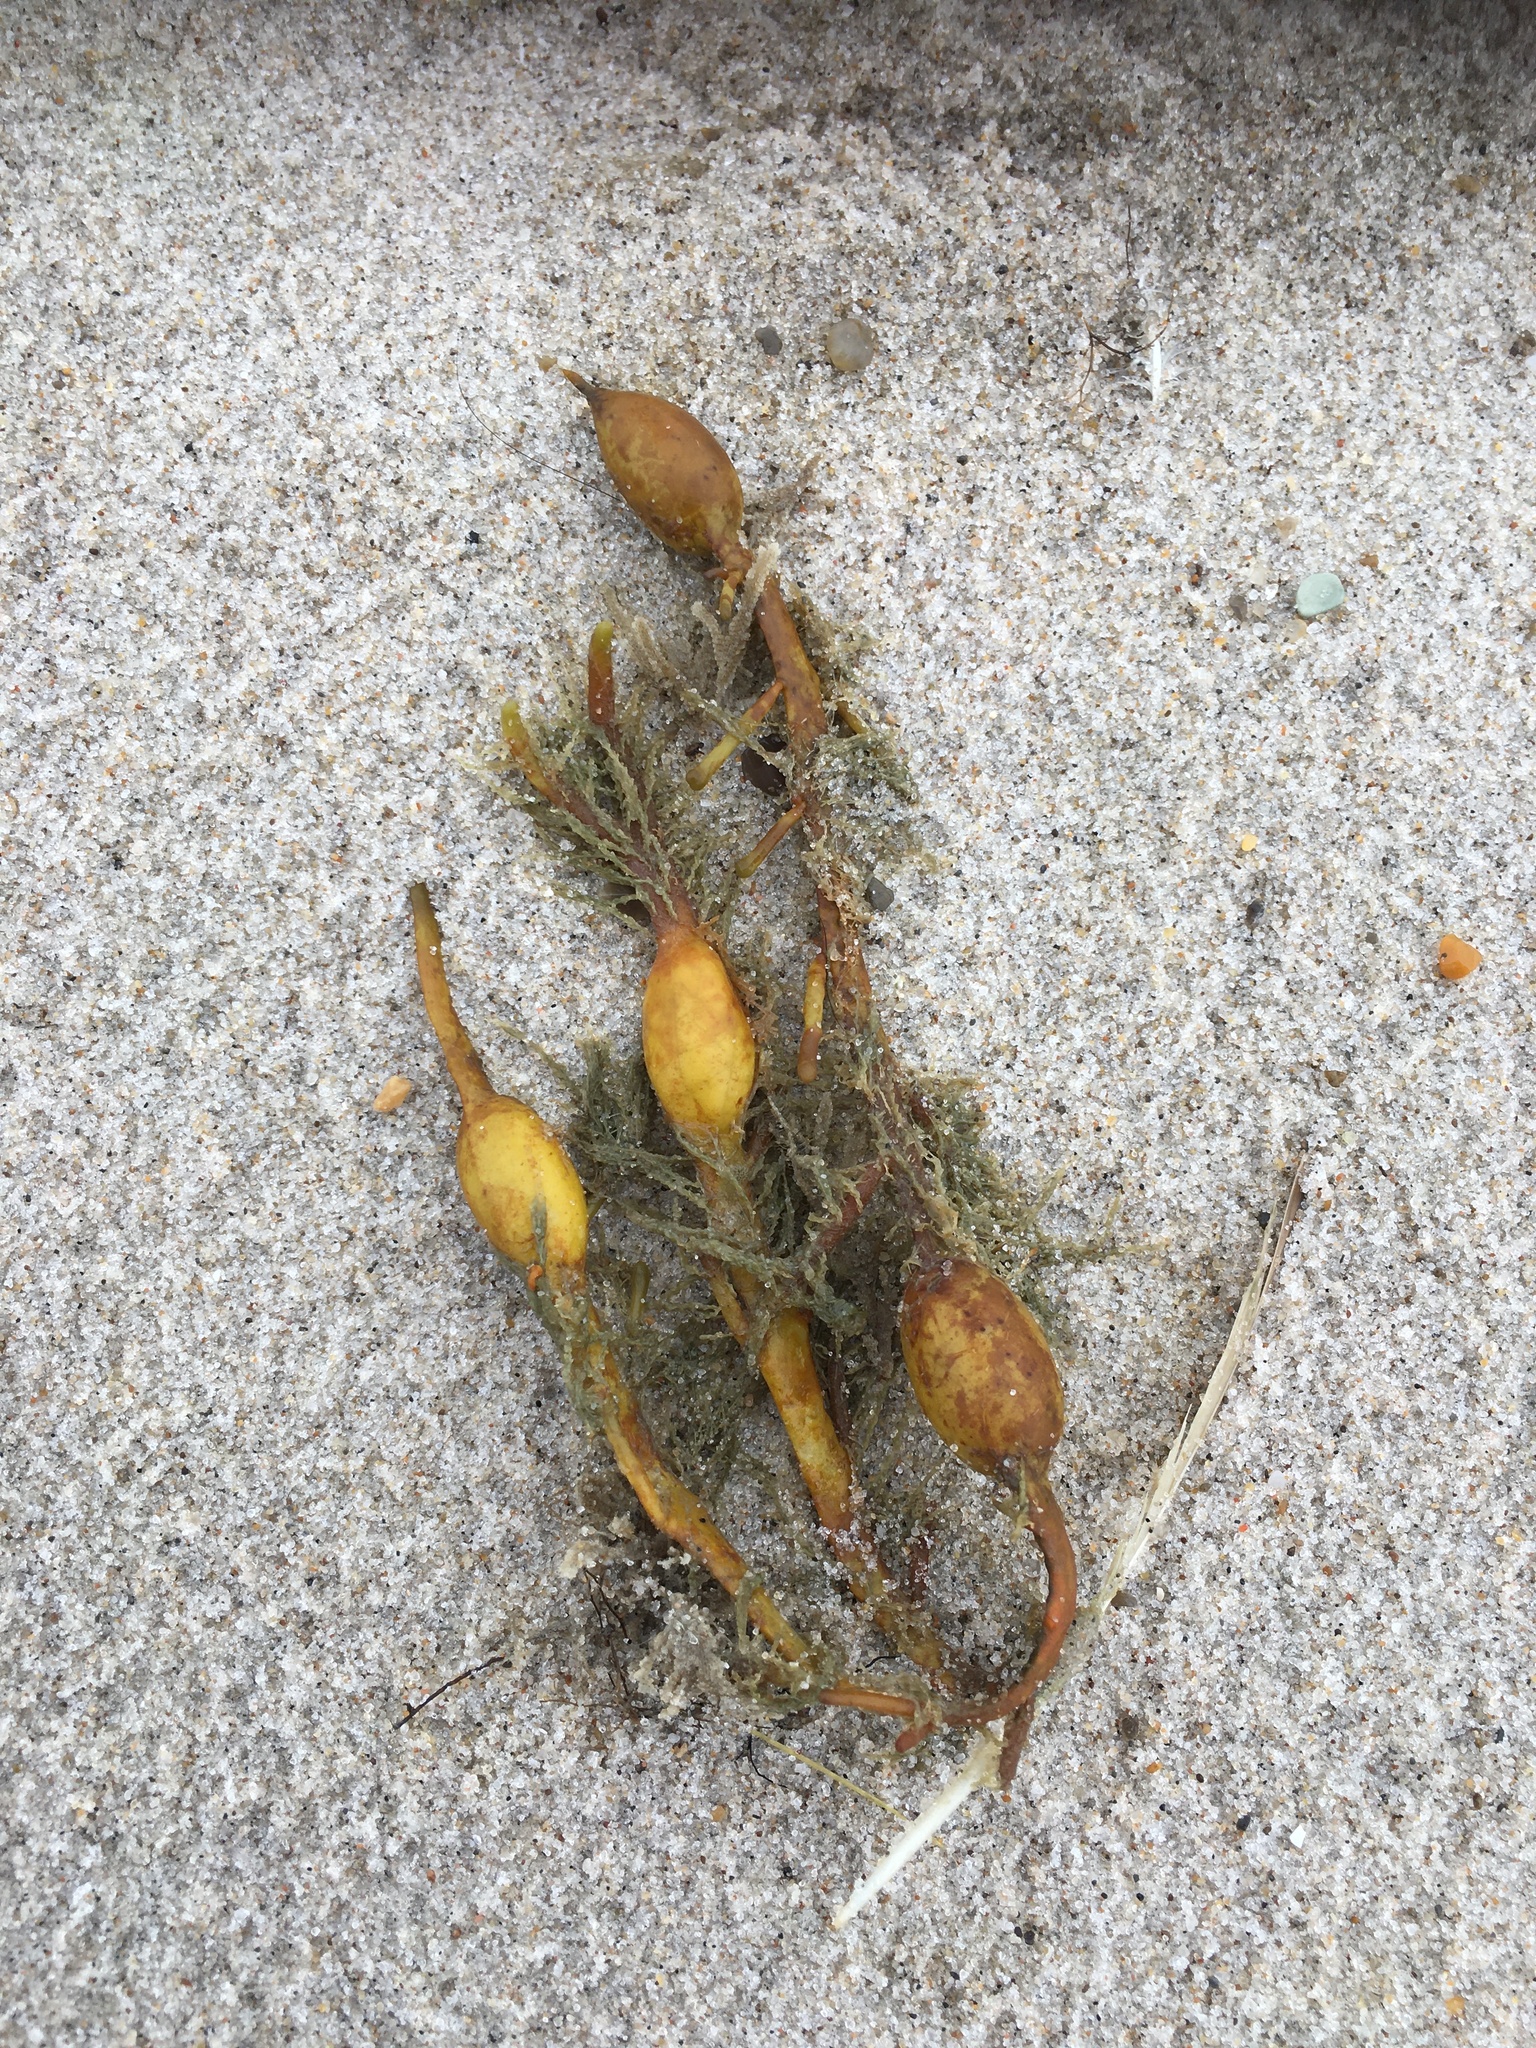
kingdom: Chromista
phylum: Ochrophyta
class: Phaeophyceae
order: Fucales
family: Fucaceae
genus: Ascophyllum
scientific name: Ascophyllum nodosum
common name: Knotted wrack
